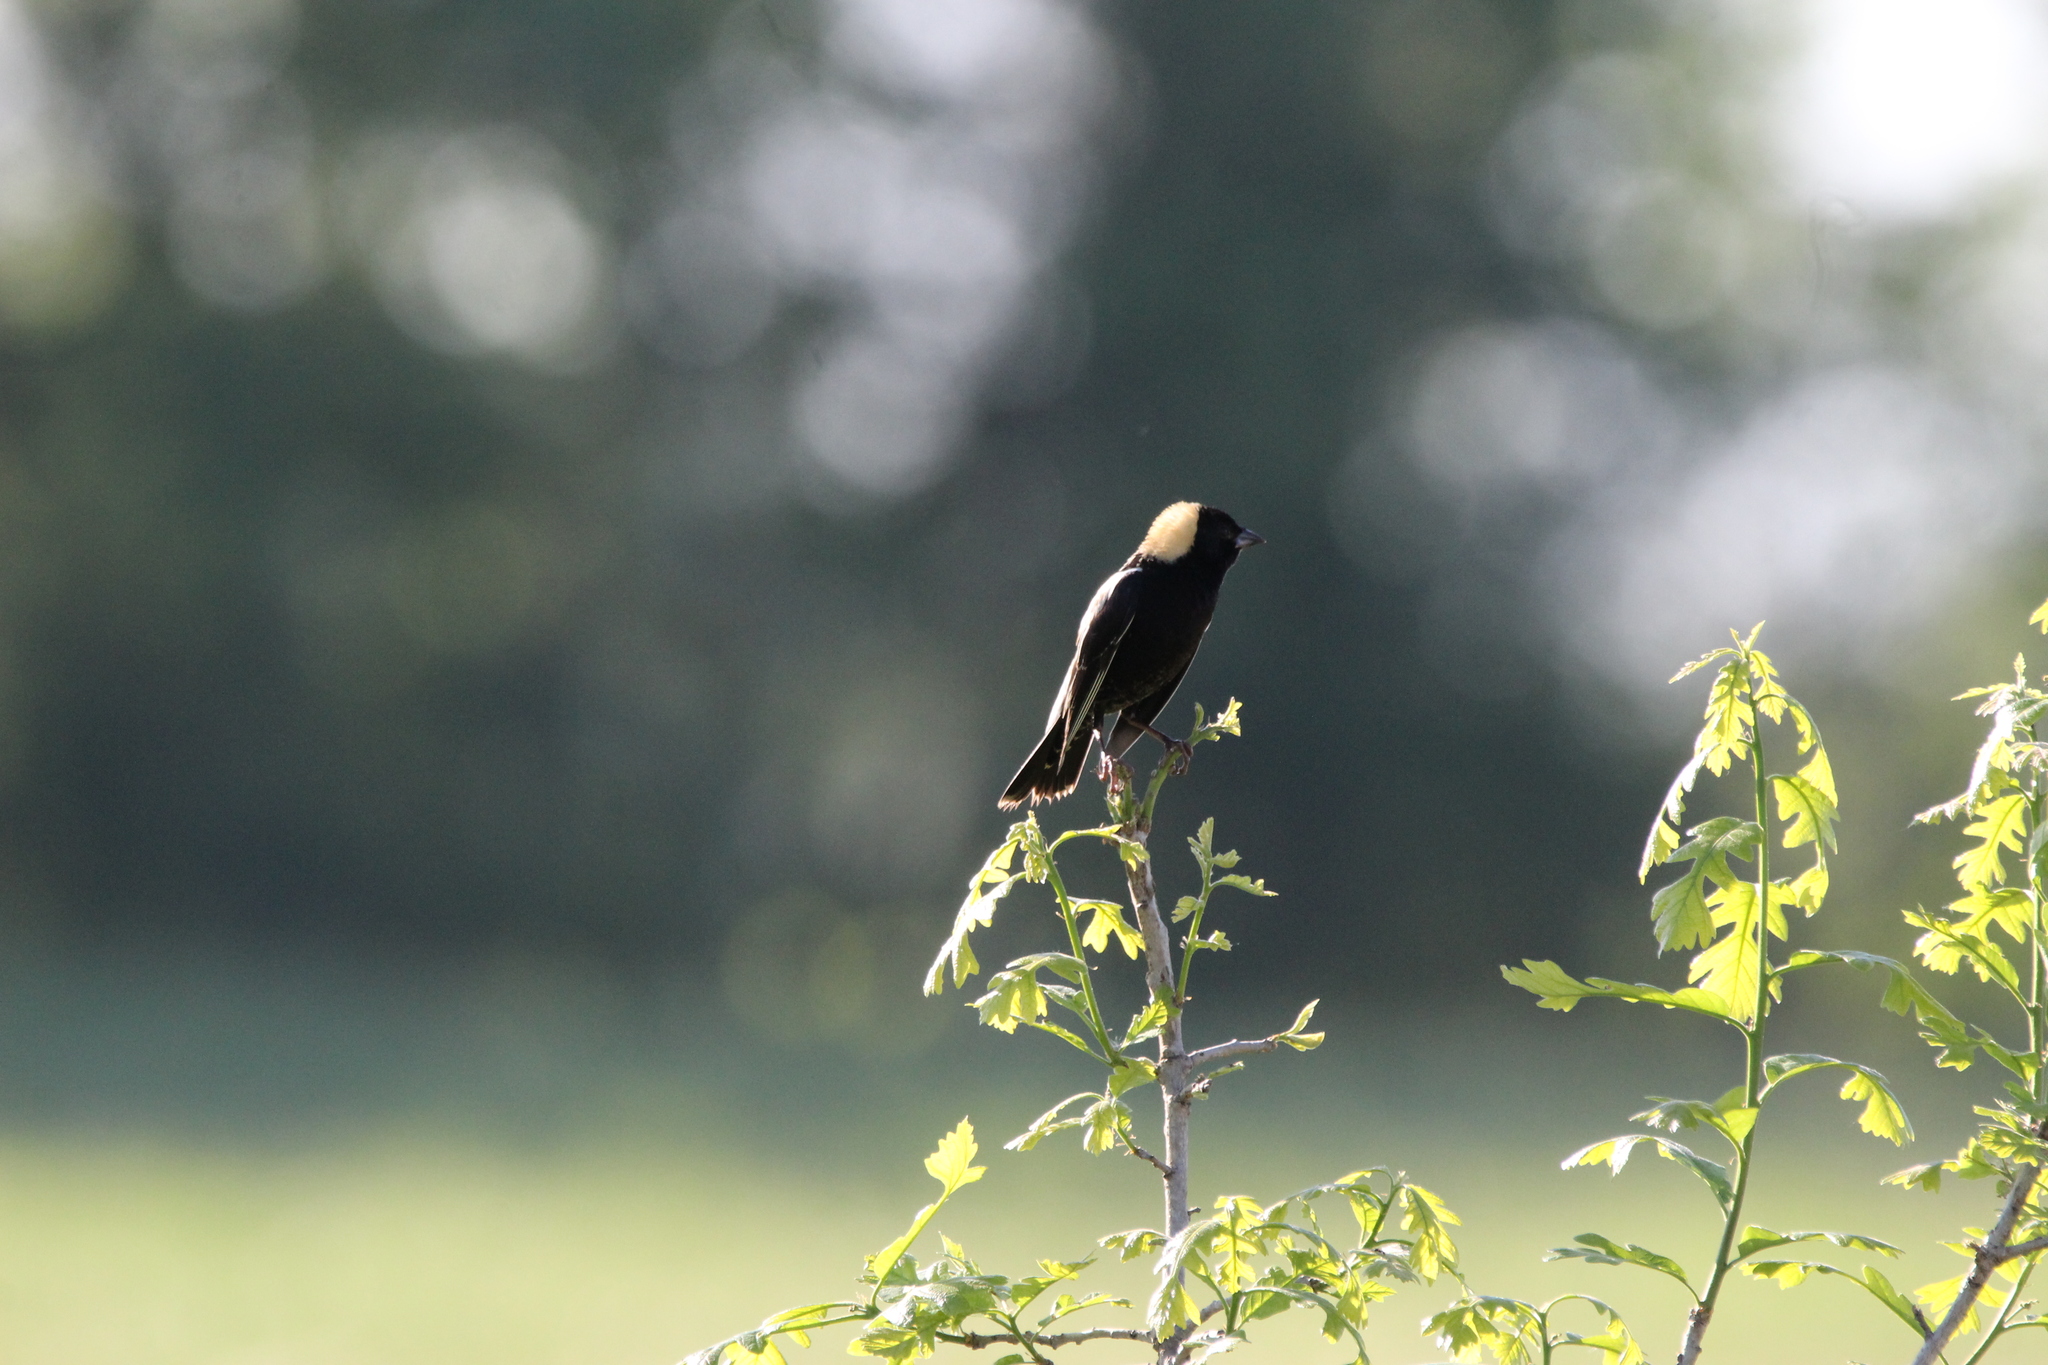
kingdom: Animalia
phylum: Chordata
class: Aves
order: Passeriformes
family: Icteridae
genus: Dolichonyx
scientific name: Dolichonyx oryzivorus
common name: Bobolink
